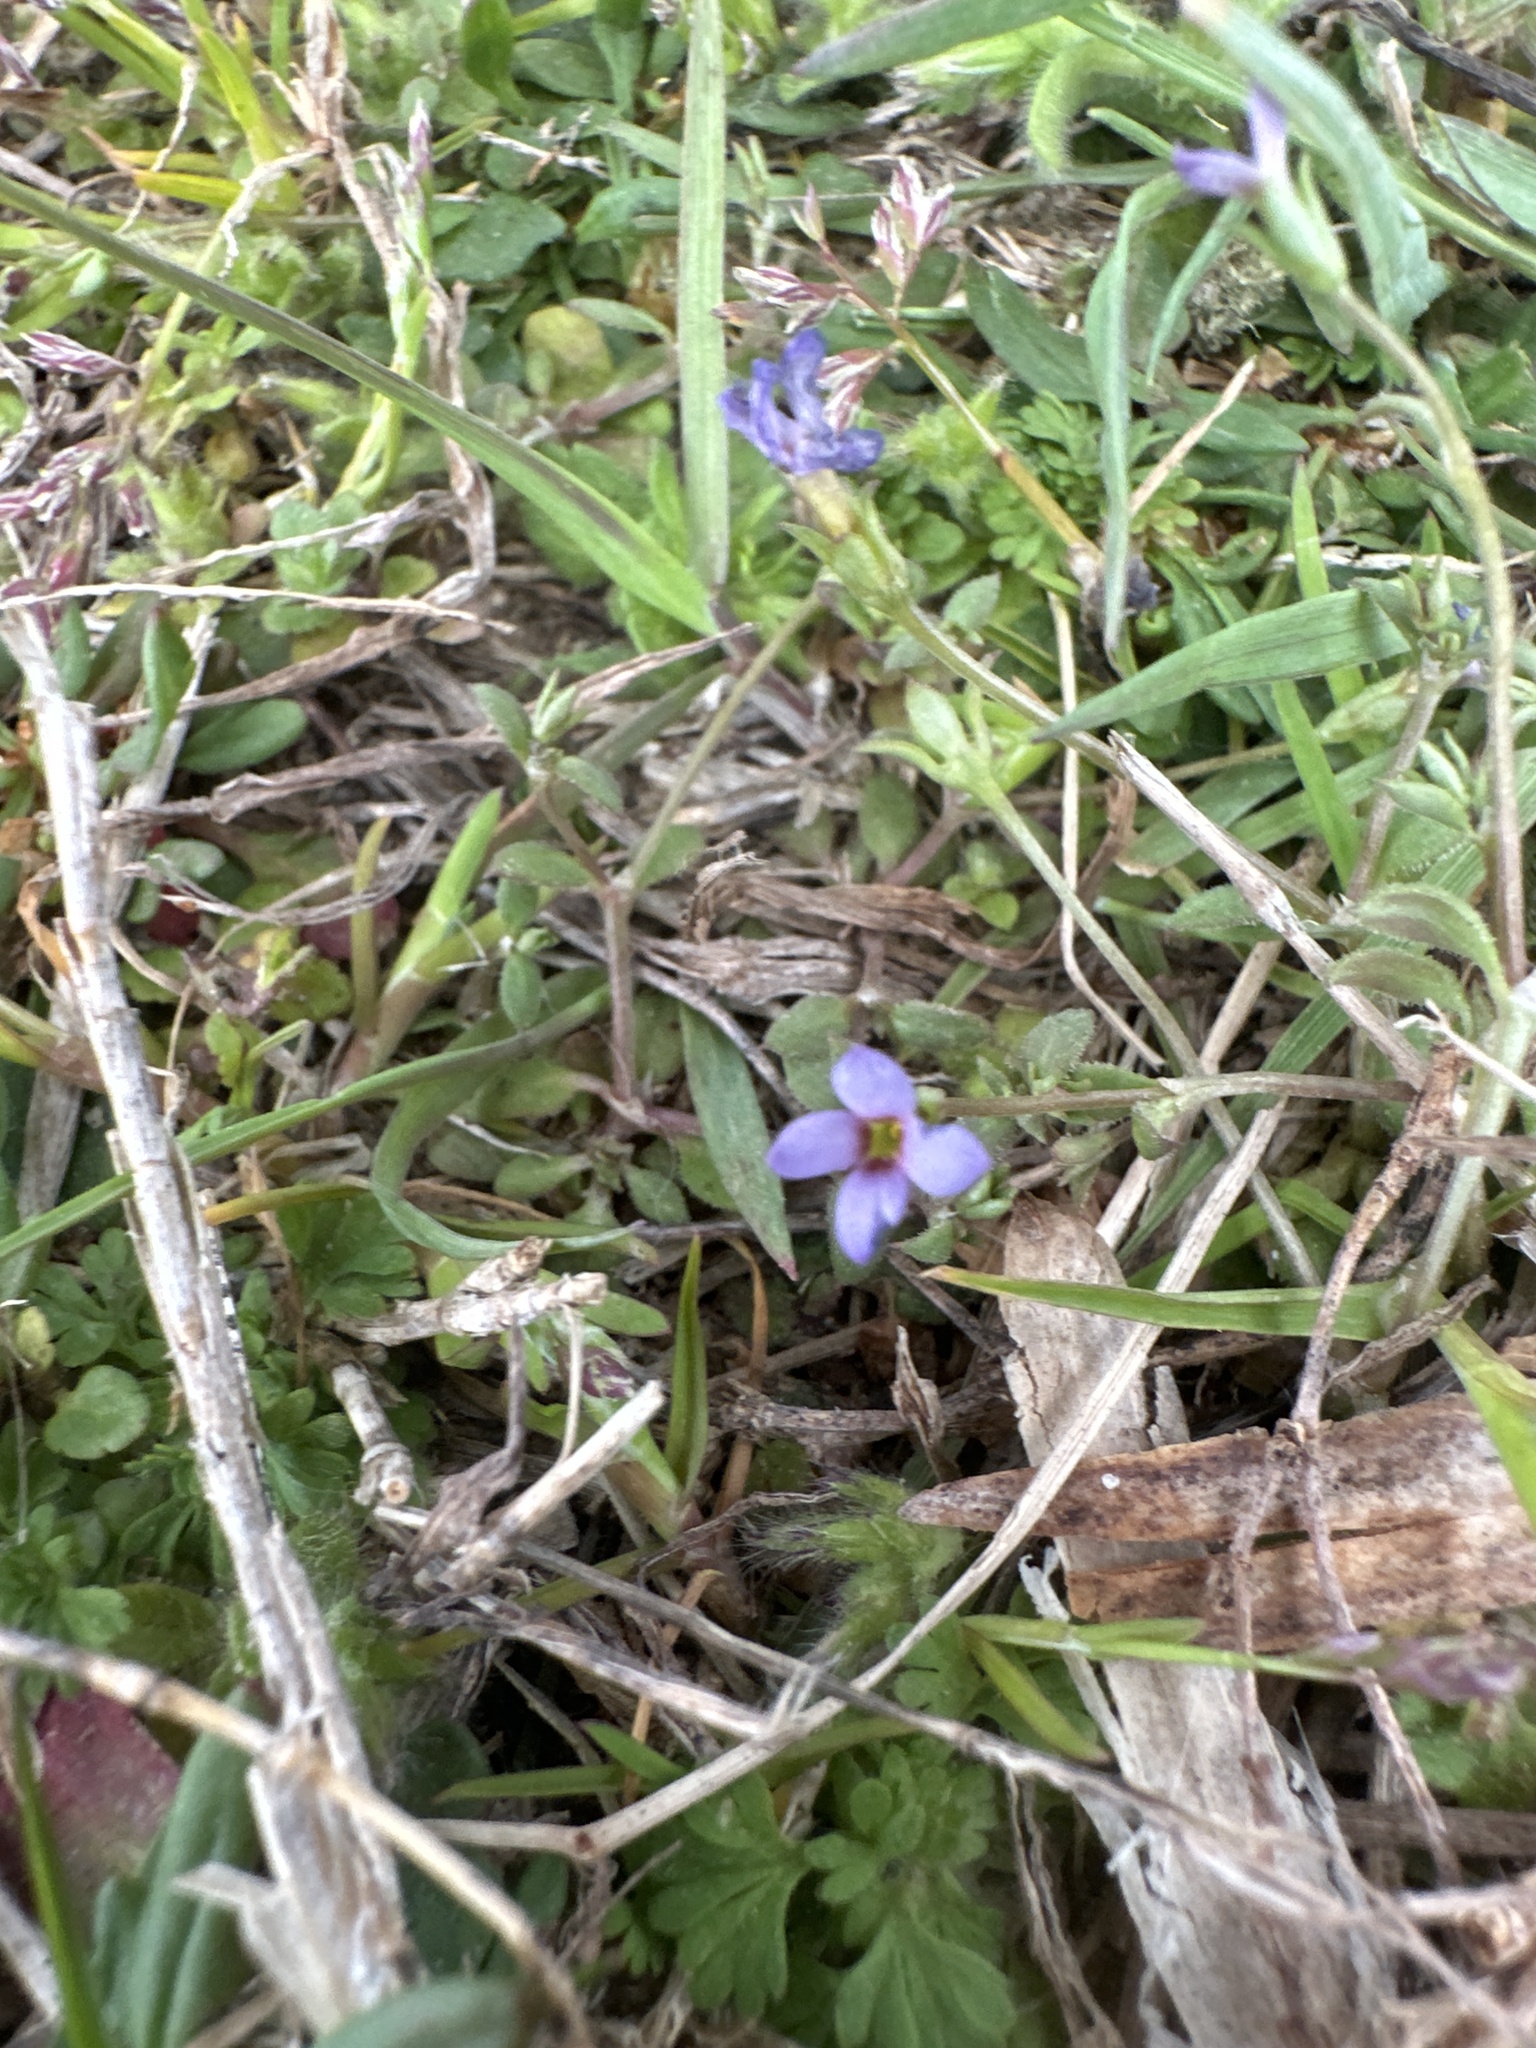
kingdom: Plantae
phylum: Tracheophyta
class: Magnoliopsida
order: Gentianales
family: Rubiaceae
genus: Houstonia
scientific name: Houstonia pusilla
